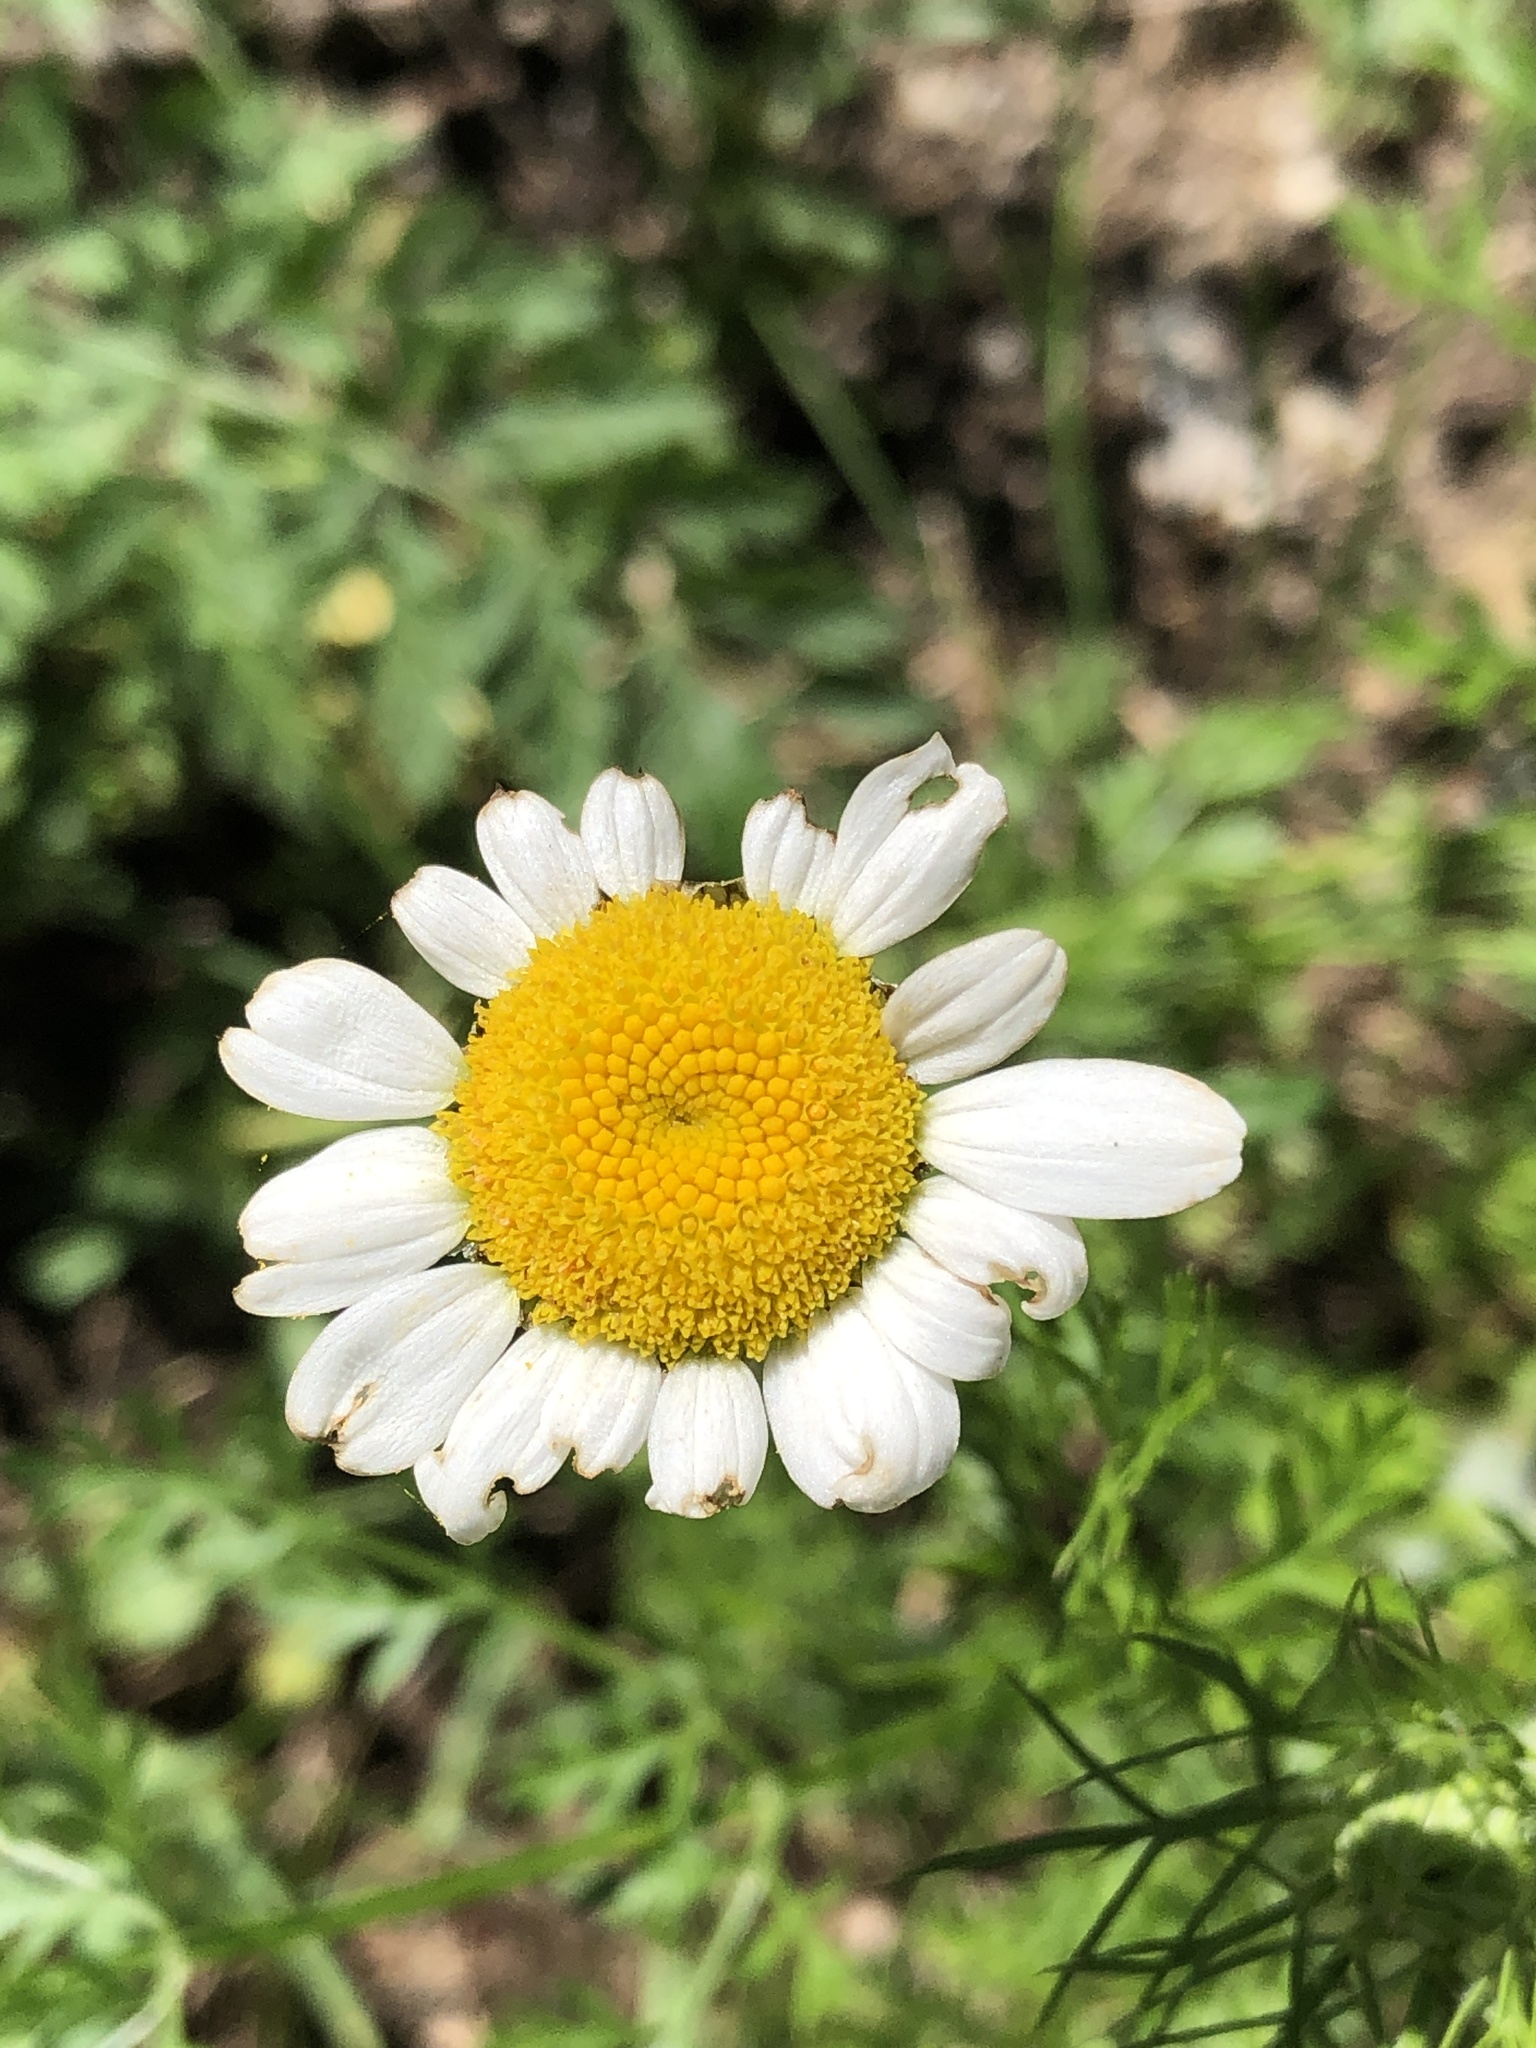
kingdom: Plantae
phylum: Tracheophyta
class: Magnoliopsida
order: Asterales
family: Asteraceae
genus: Leucanthemum
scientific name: Leucanthemum vulgare
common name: Oxeye daisy
